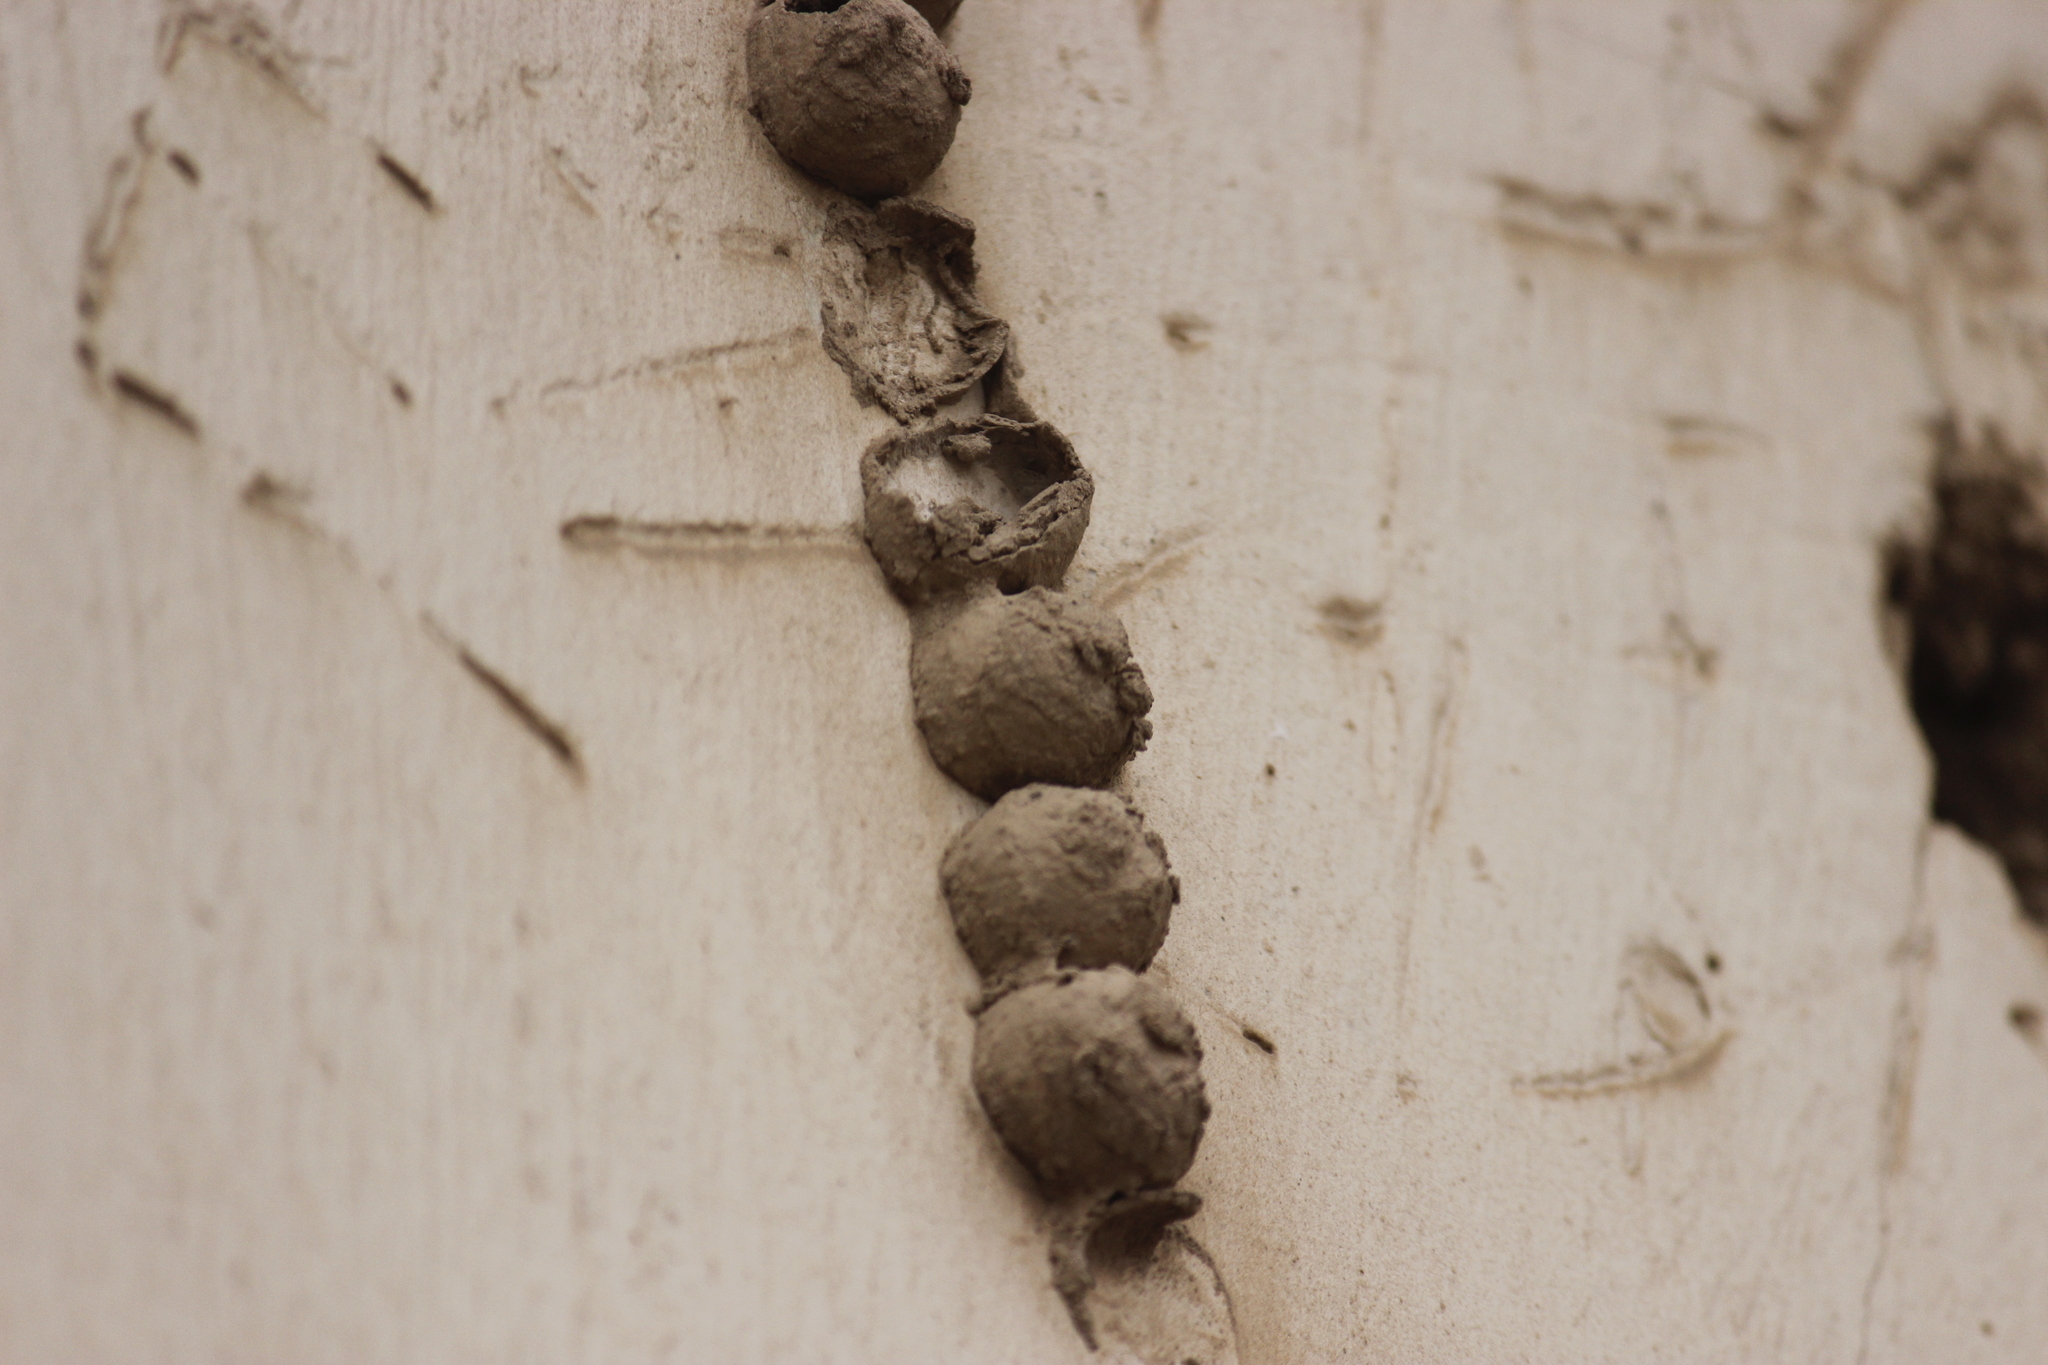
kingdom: Animalia
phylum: Arthropoda
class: Insecta
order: Hymenoptera
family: Eumenidae
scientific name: Eumenidae
